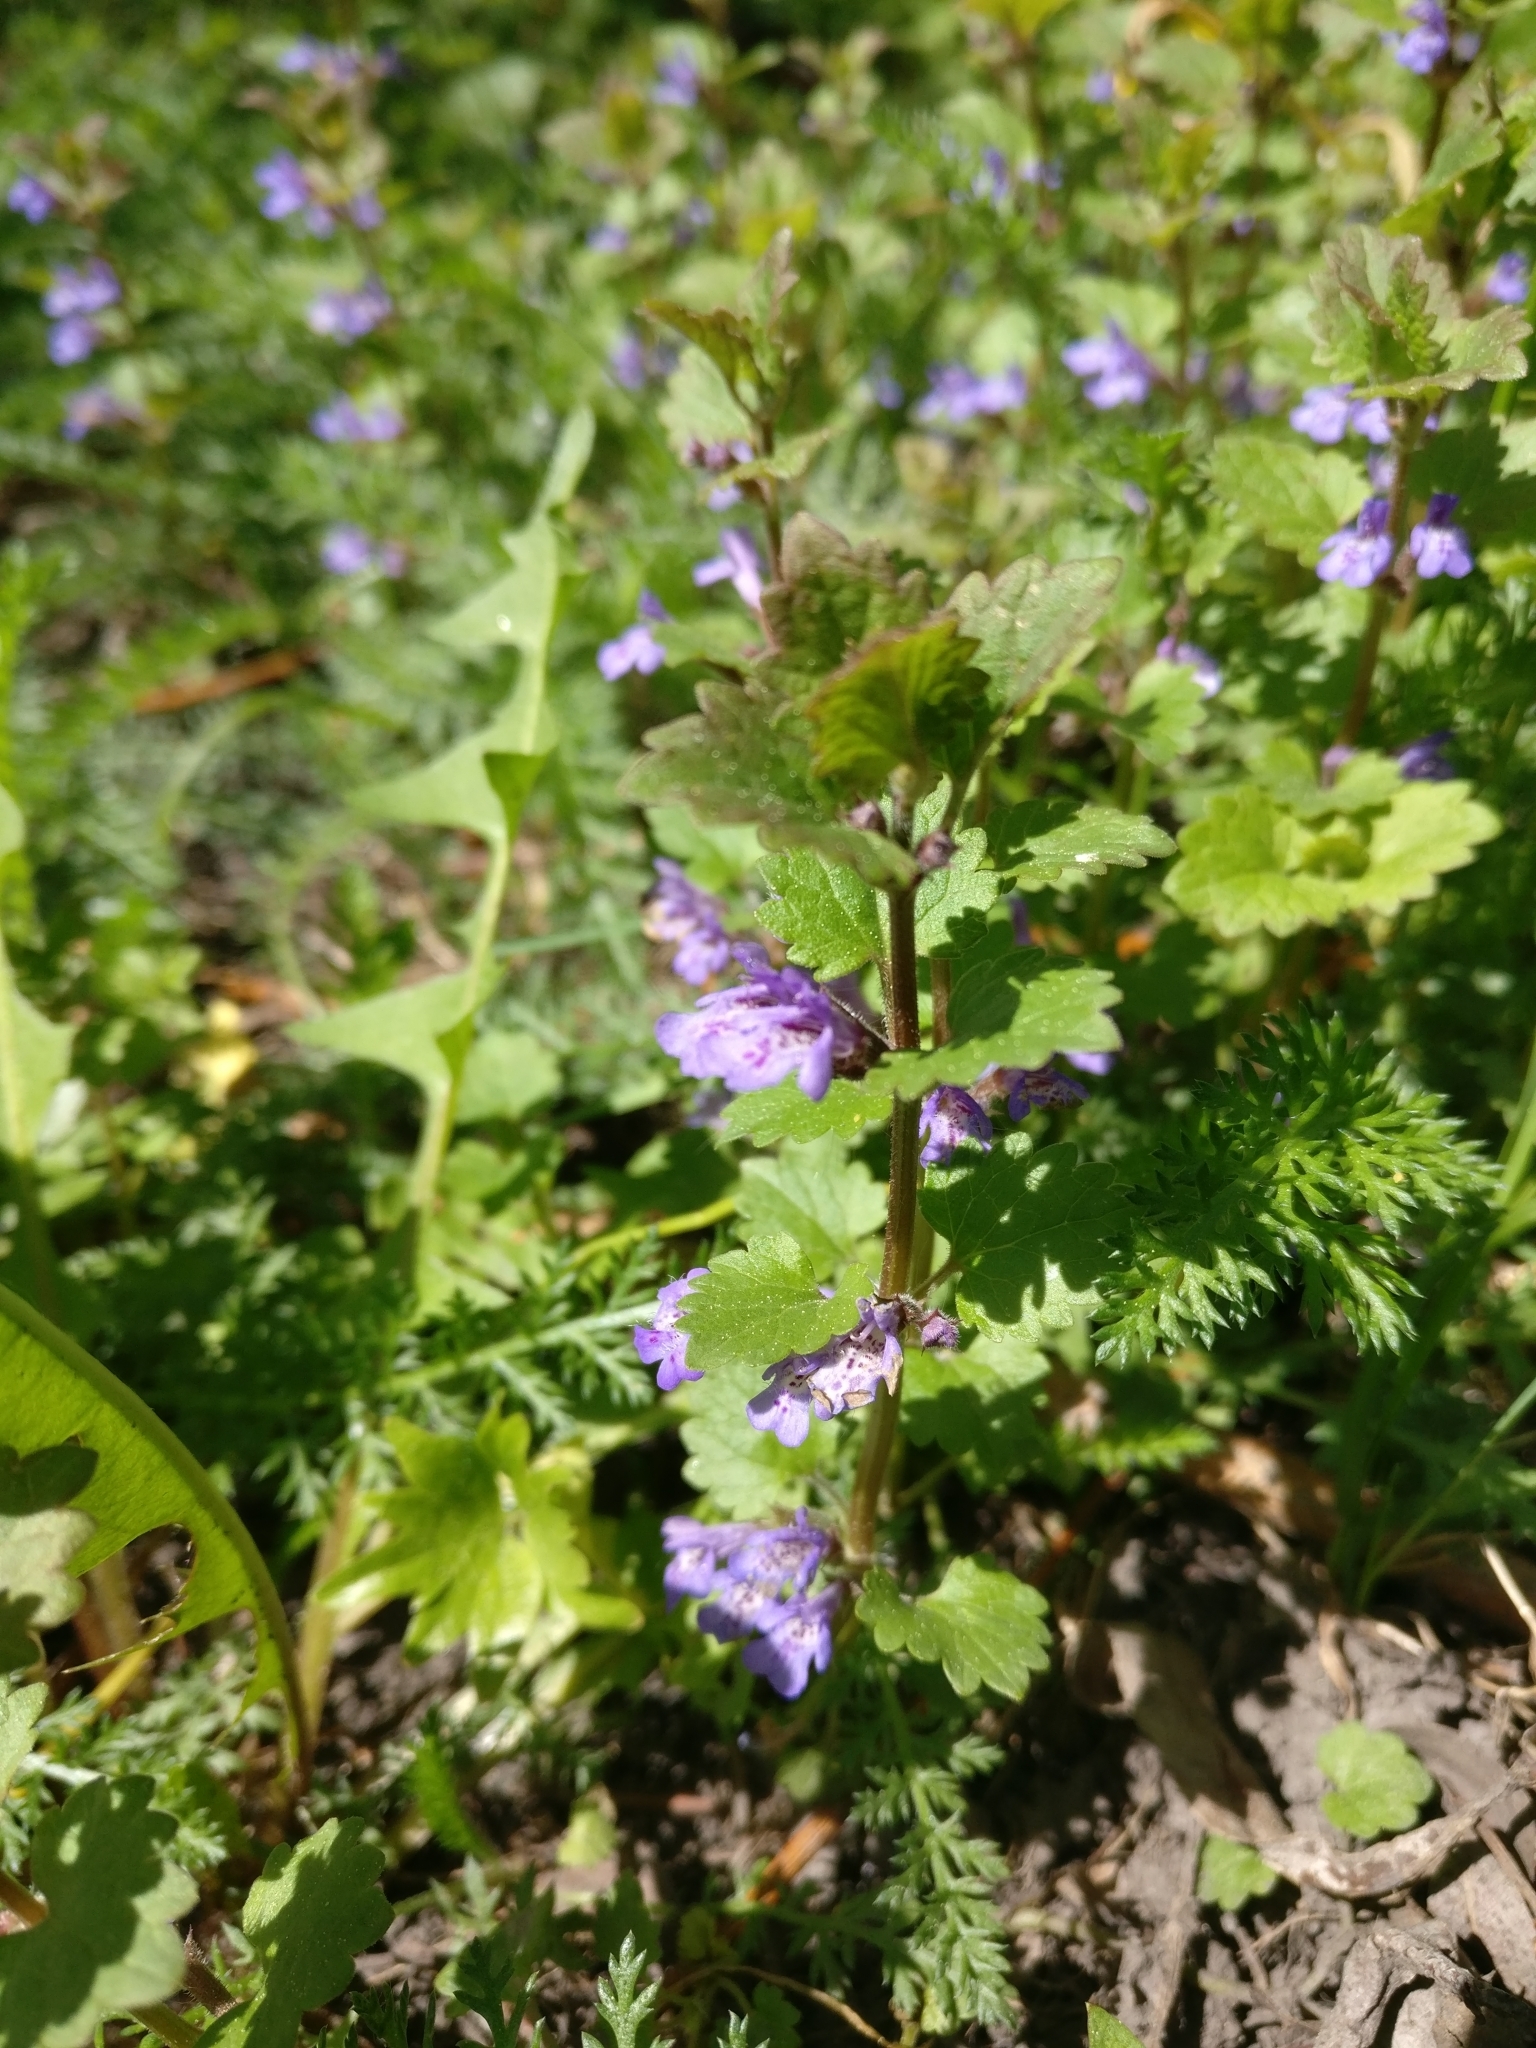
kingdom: Plantae
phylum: Tracheophyta
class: Magnoliopsida
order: Lamiales
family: Lamiaceae
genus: Glechoma
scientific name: Glechoma hederacea
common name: Ground ivy
